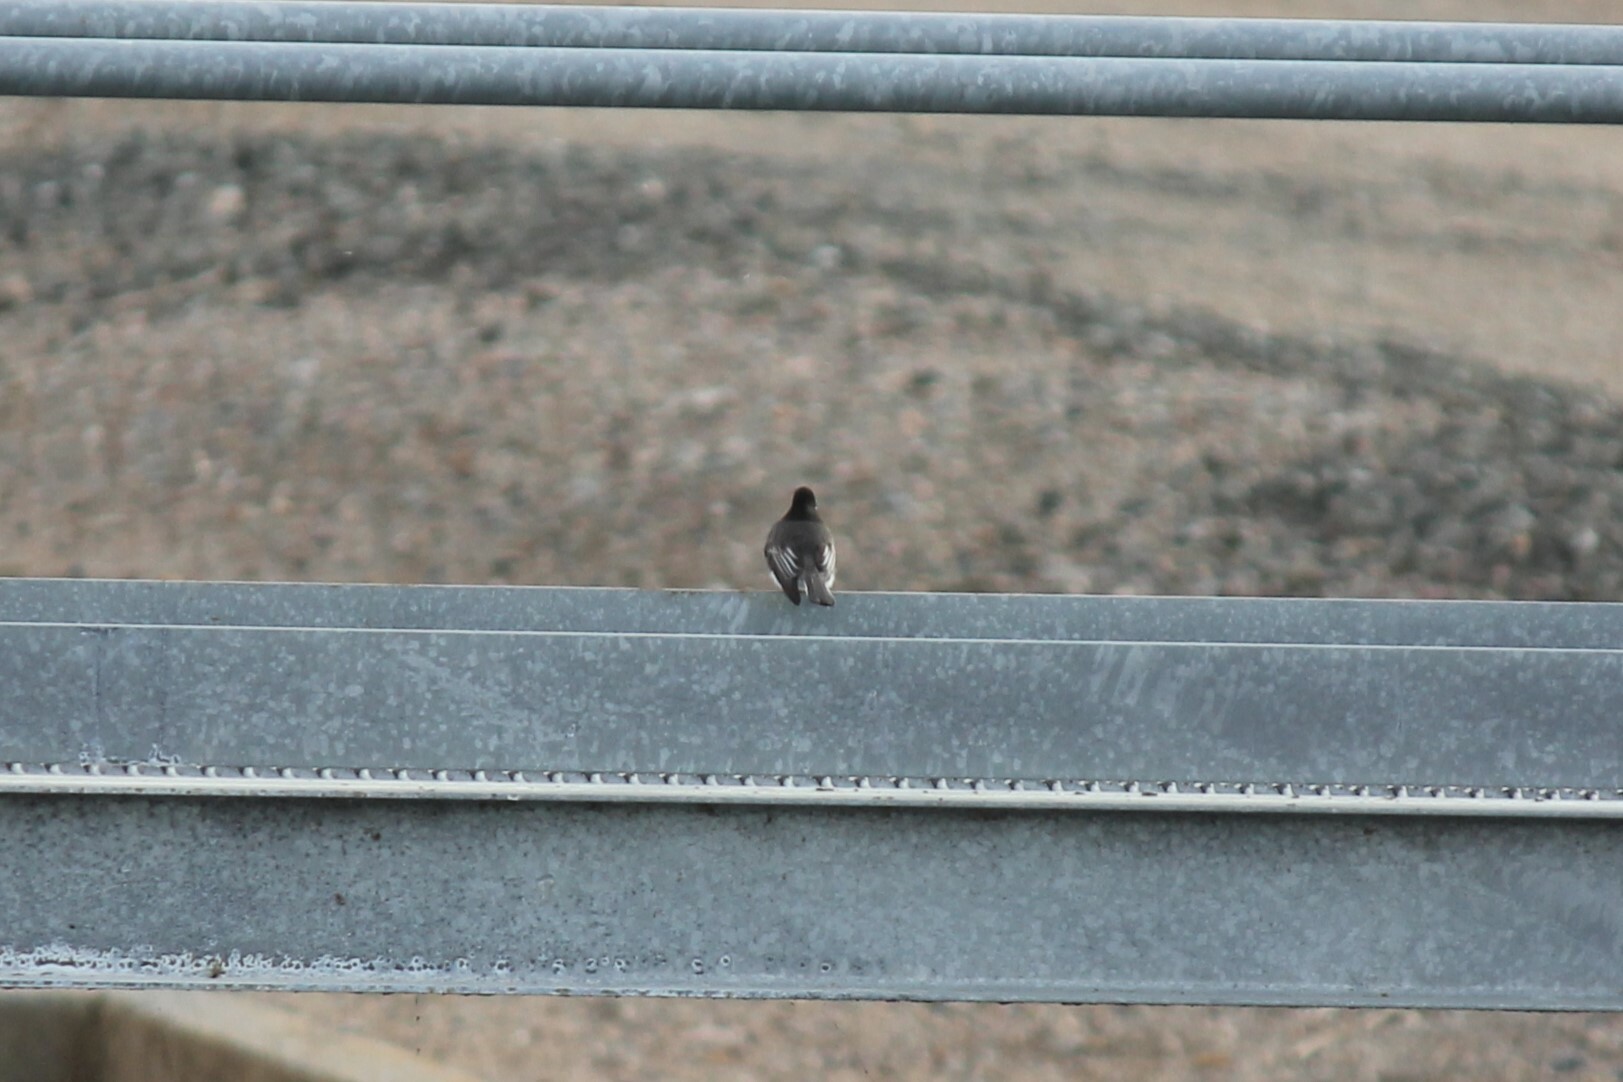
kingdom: Animalia
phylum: Chordata
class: Aves
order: Passeriformes
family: Tyrannidae
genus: Sayornis
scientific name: Sayornis nigricans
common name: Black phoebe
